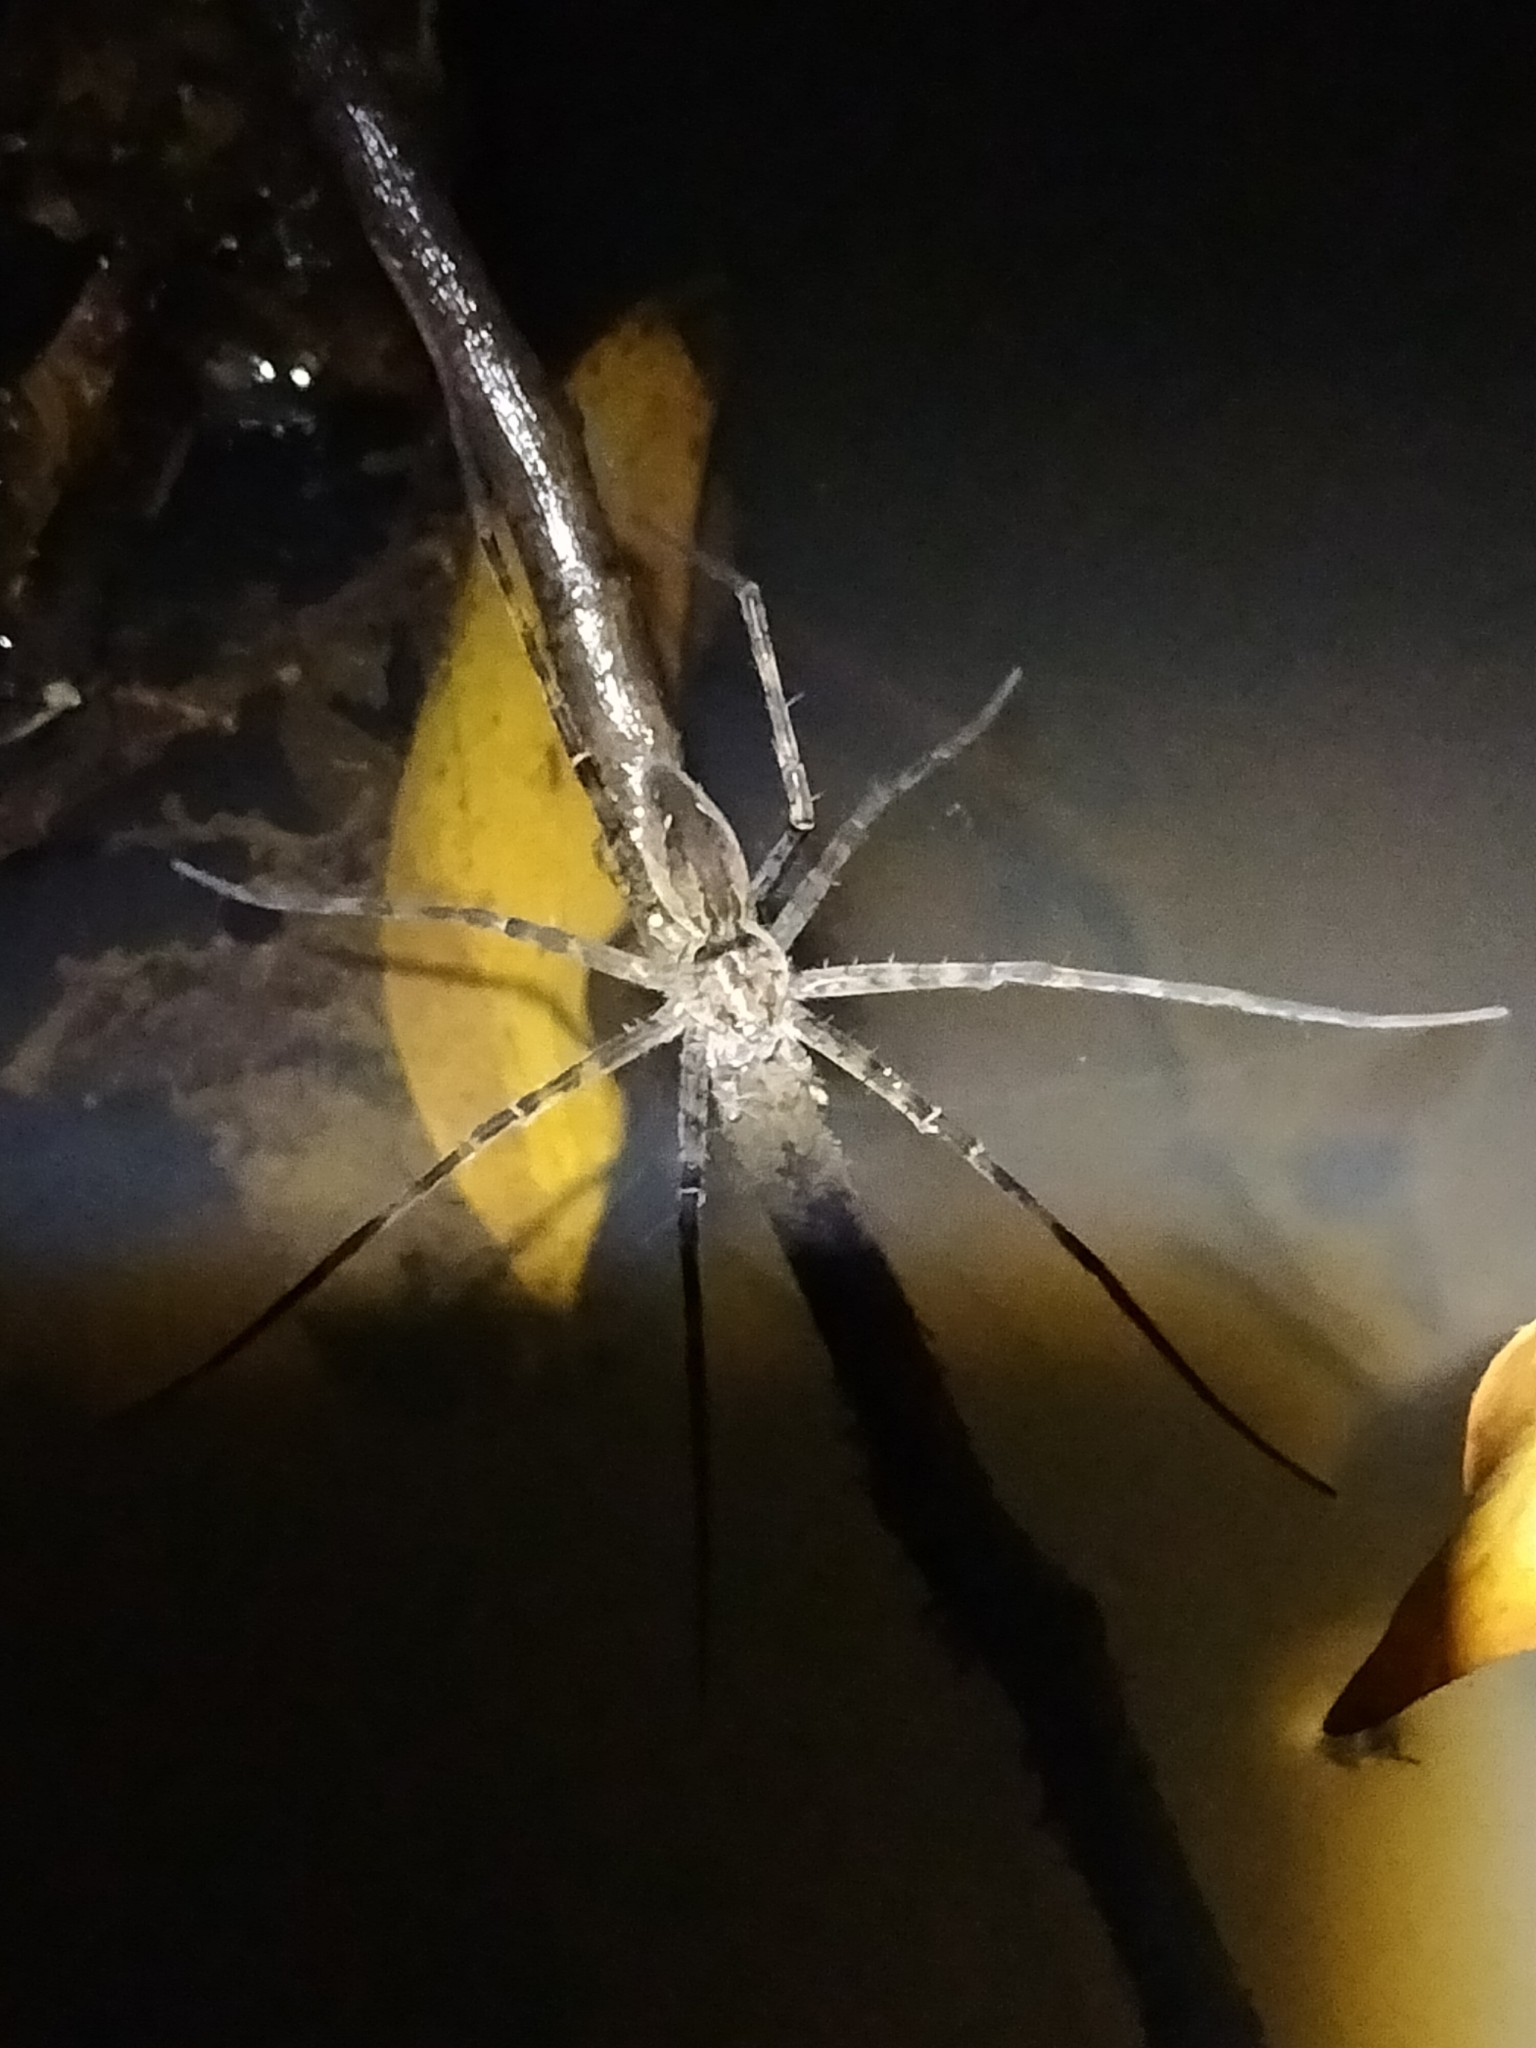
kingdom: Animalia
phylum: Arthropoda
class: Arachnida
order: Araneae
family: Pisauridae
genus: Megadolomedes
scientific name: Megadolomedes trux
